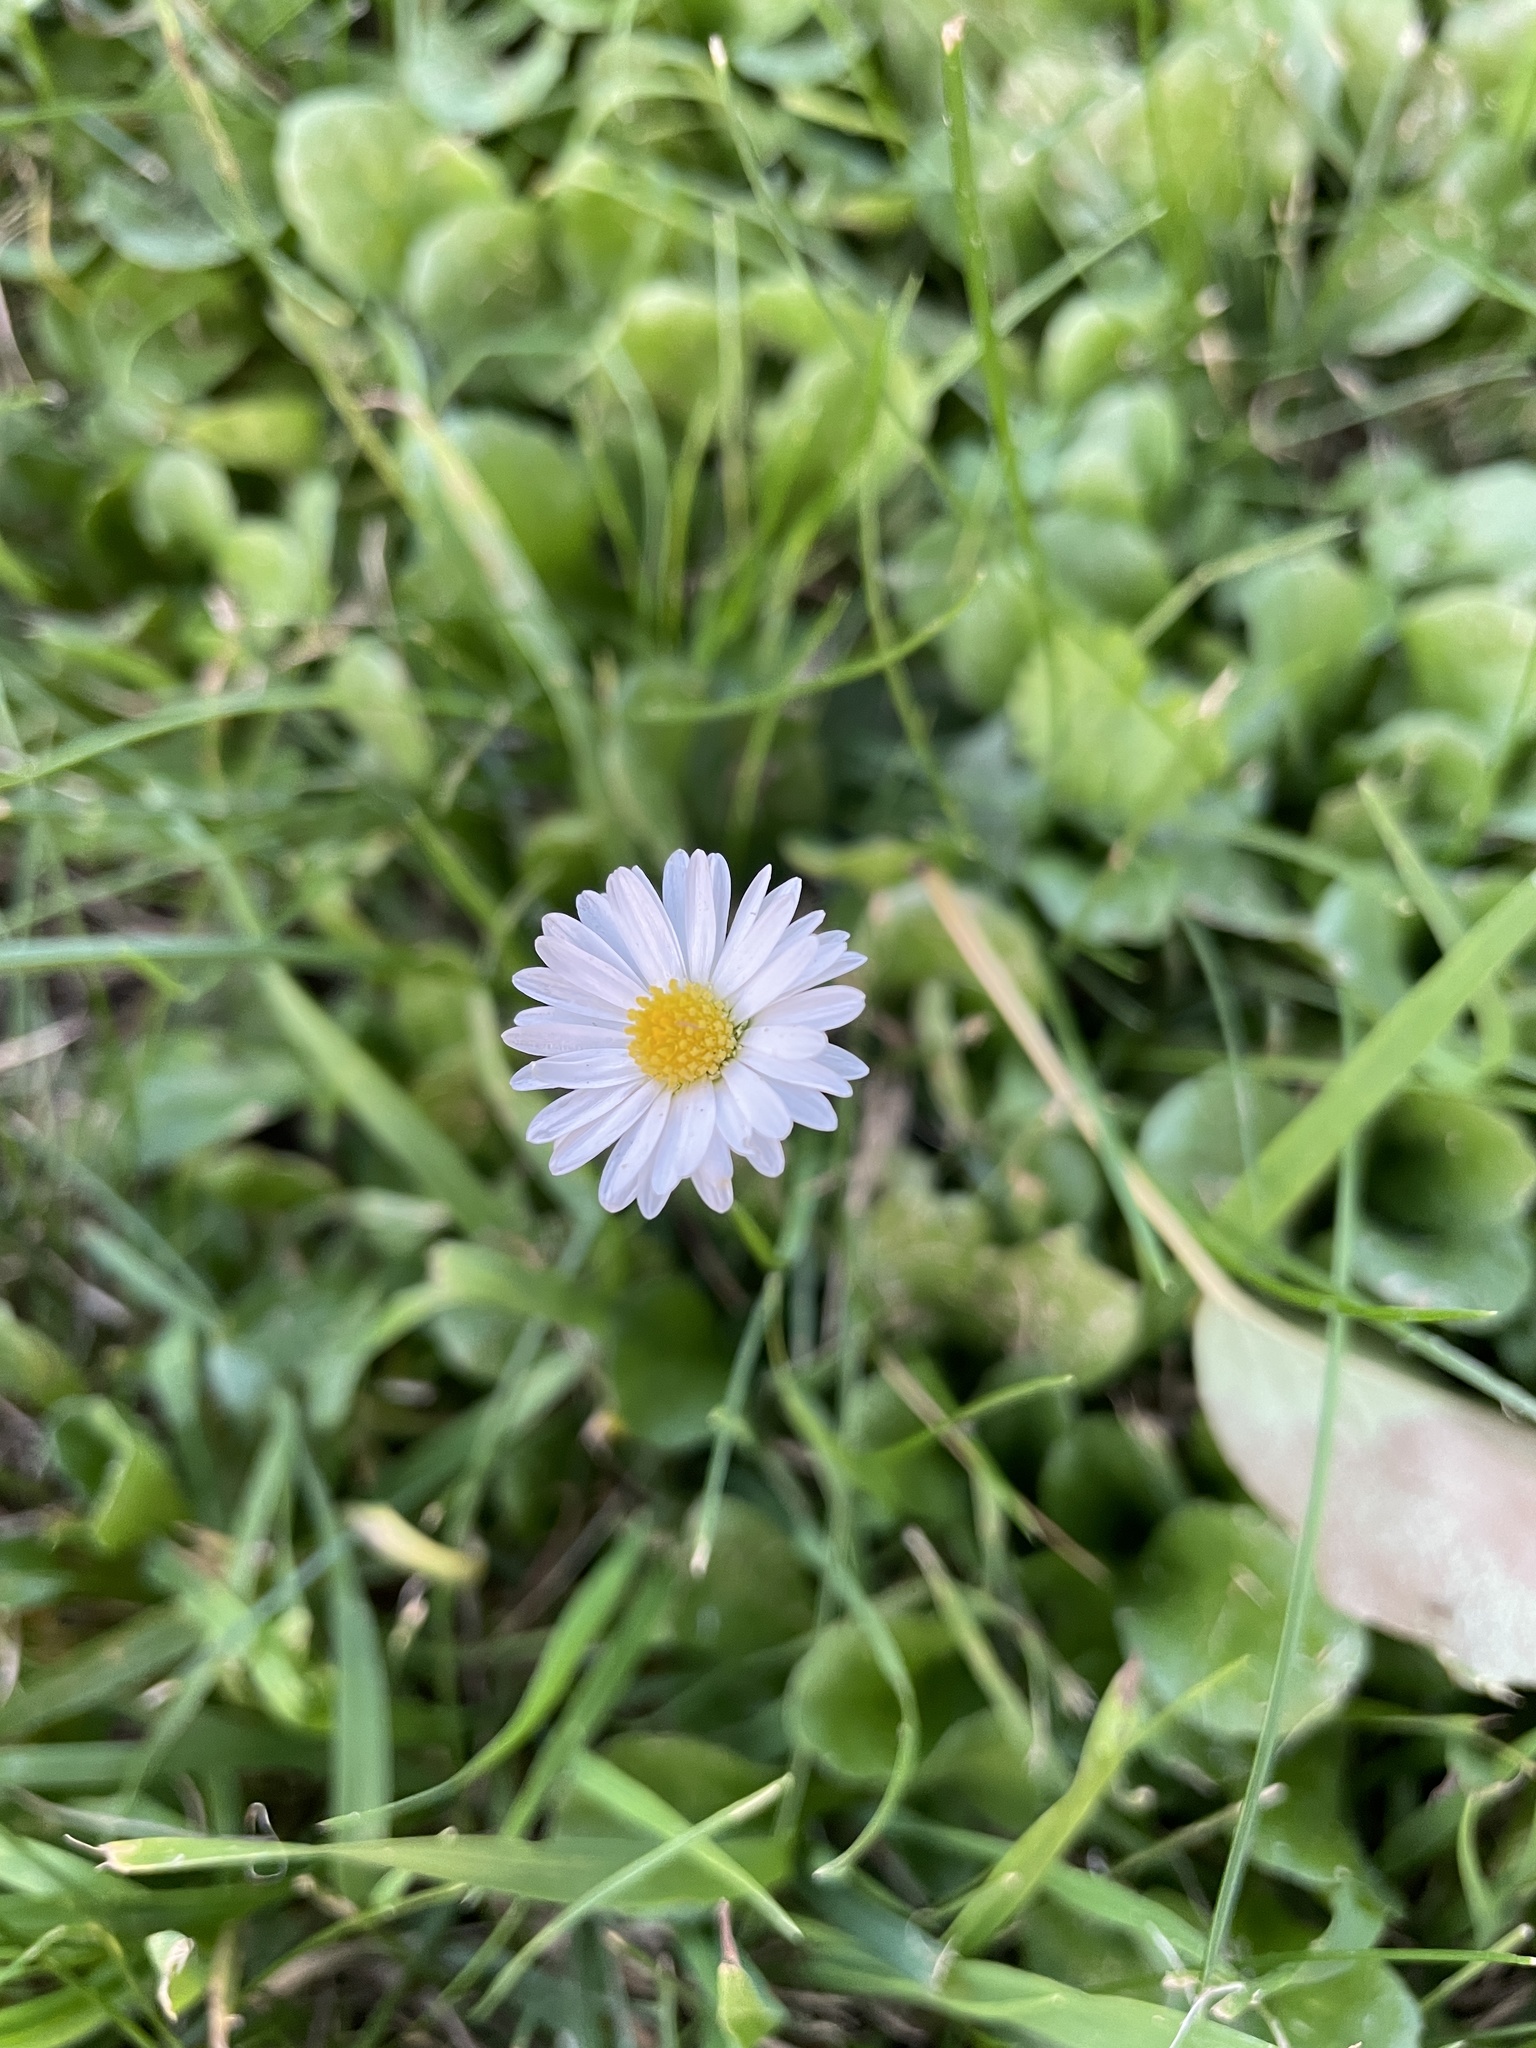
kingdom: Plantae
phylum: Tracheophyta
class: Magnoliopsida
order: Asterales
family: Asteraceae
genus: Bellis
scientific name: Bellis perennis
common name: Lawndaisy
